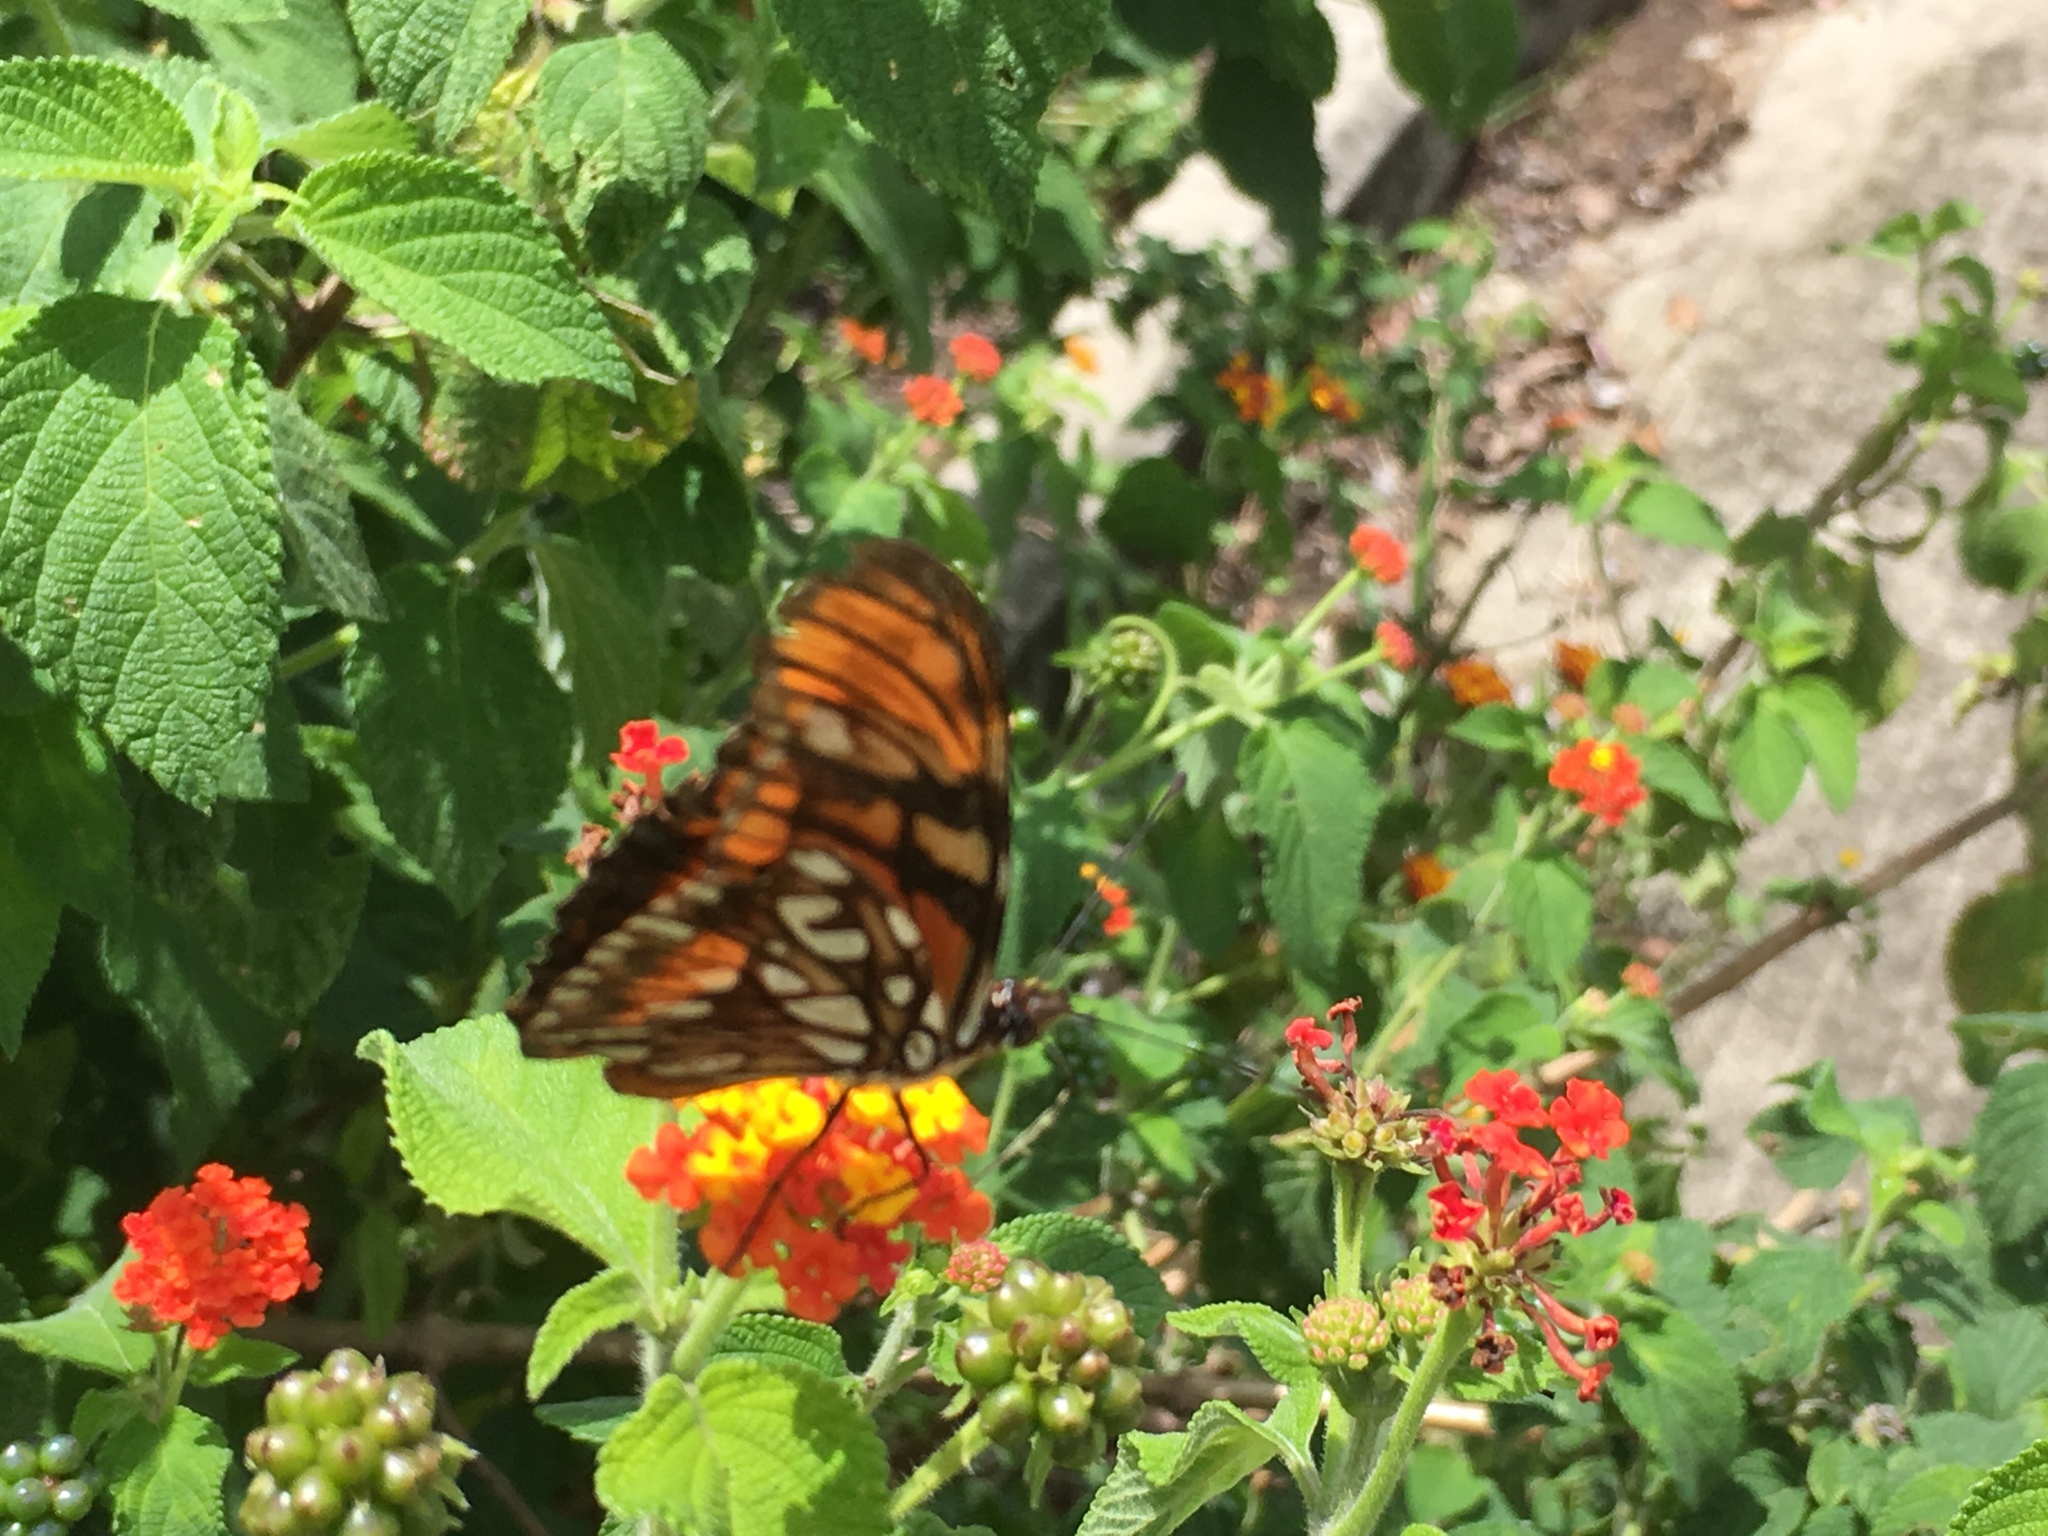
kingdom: Animalia
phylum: Arthropoda
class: Insecta
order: Lepidoptera
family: Nymphalidae
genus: Dione
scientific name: Dione juno
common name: Juno silverspot
